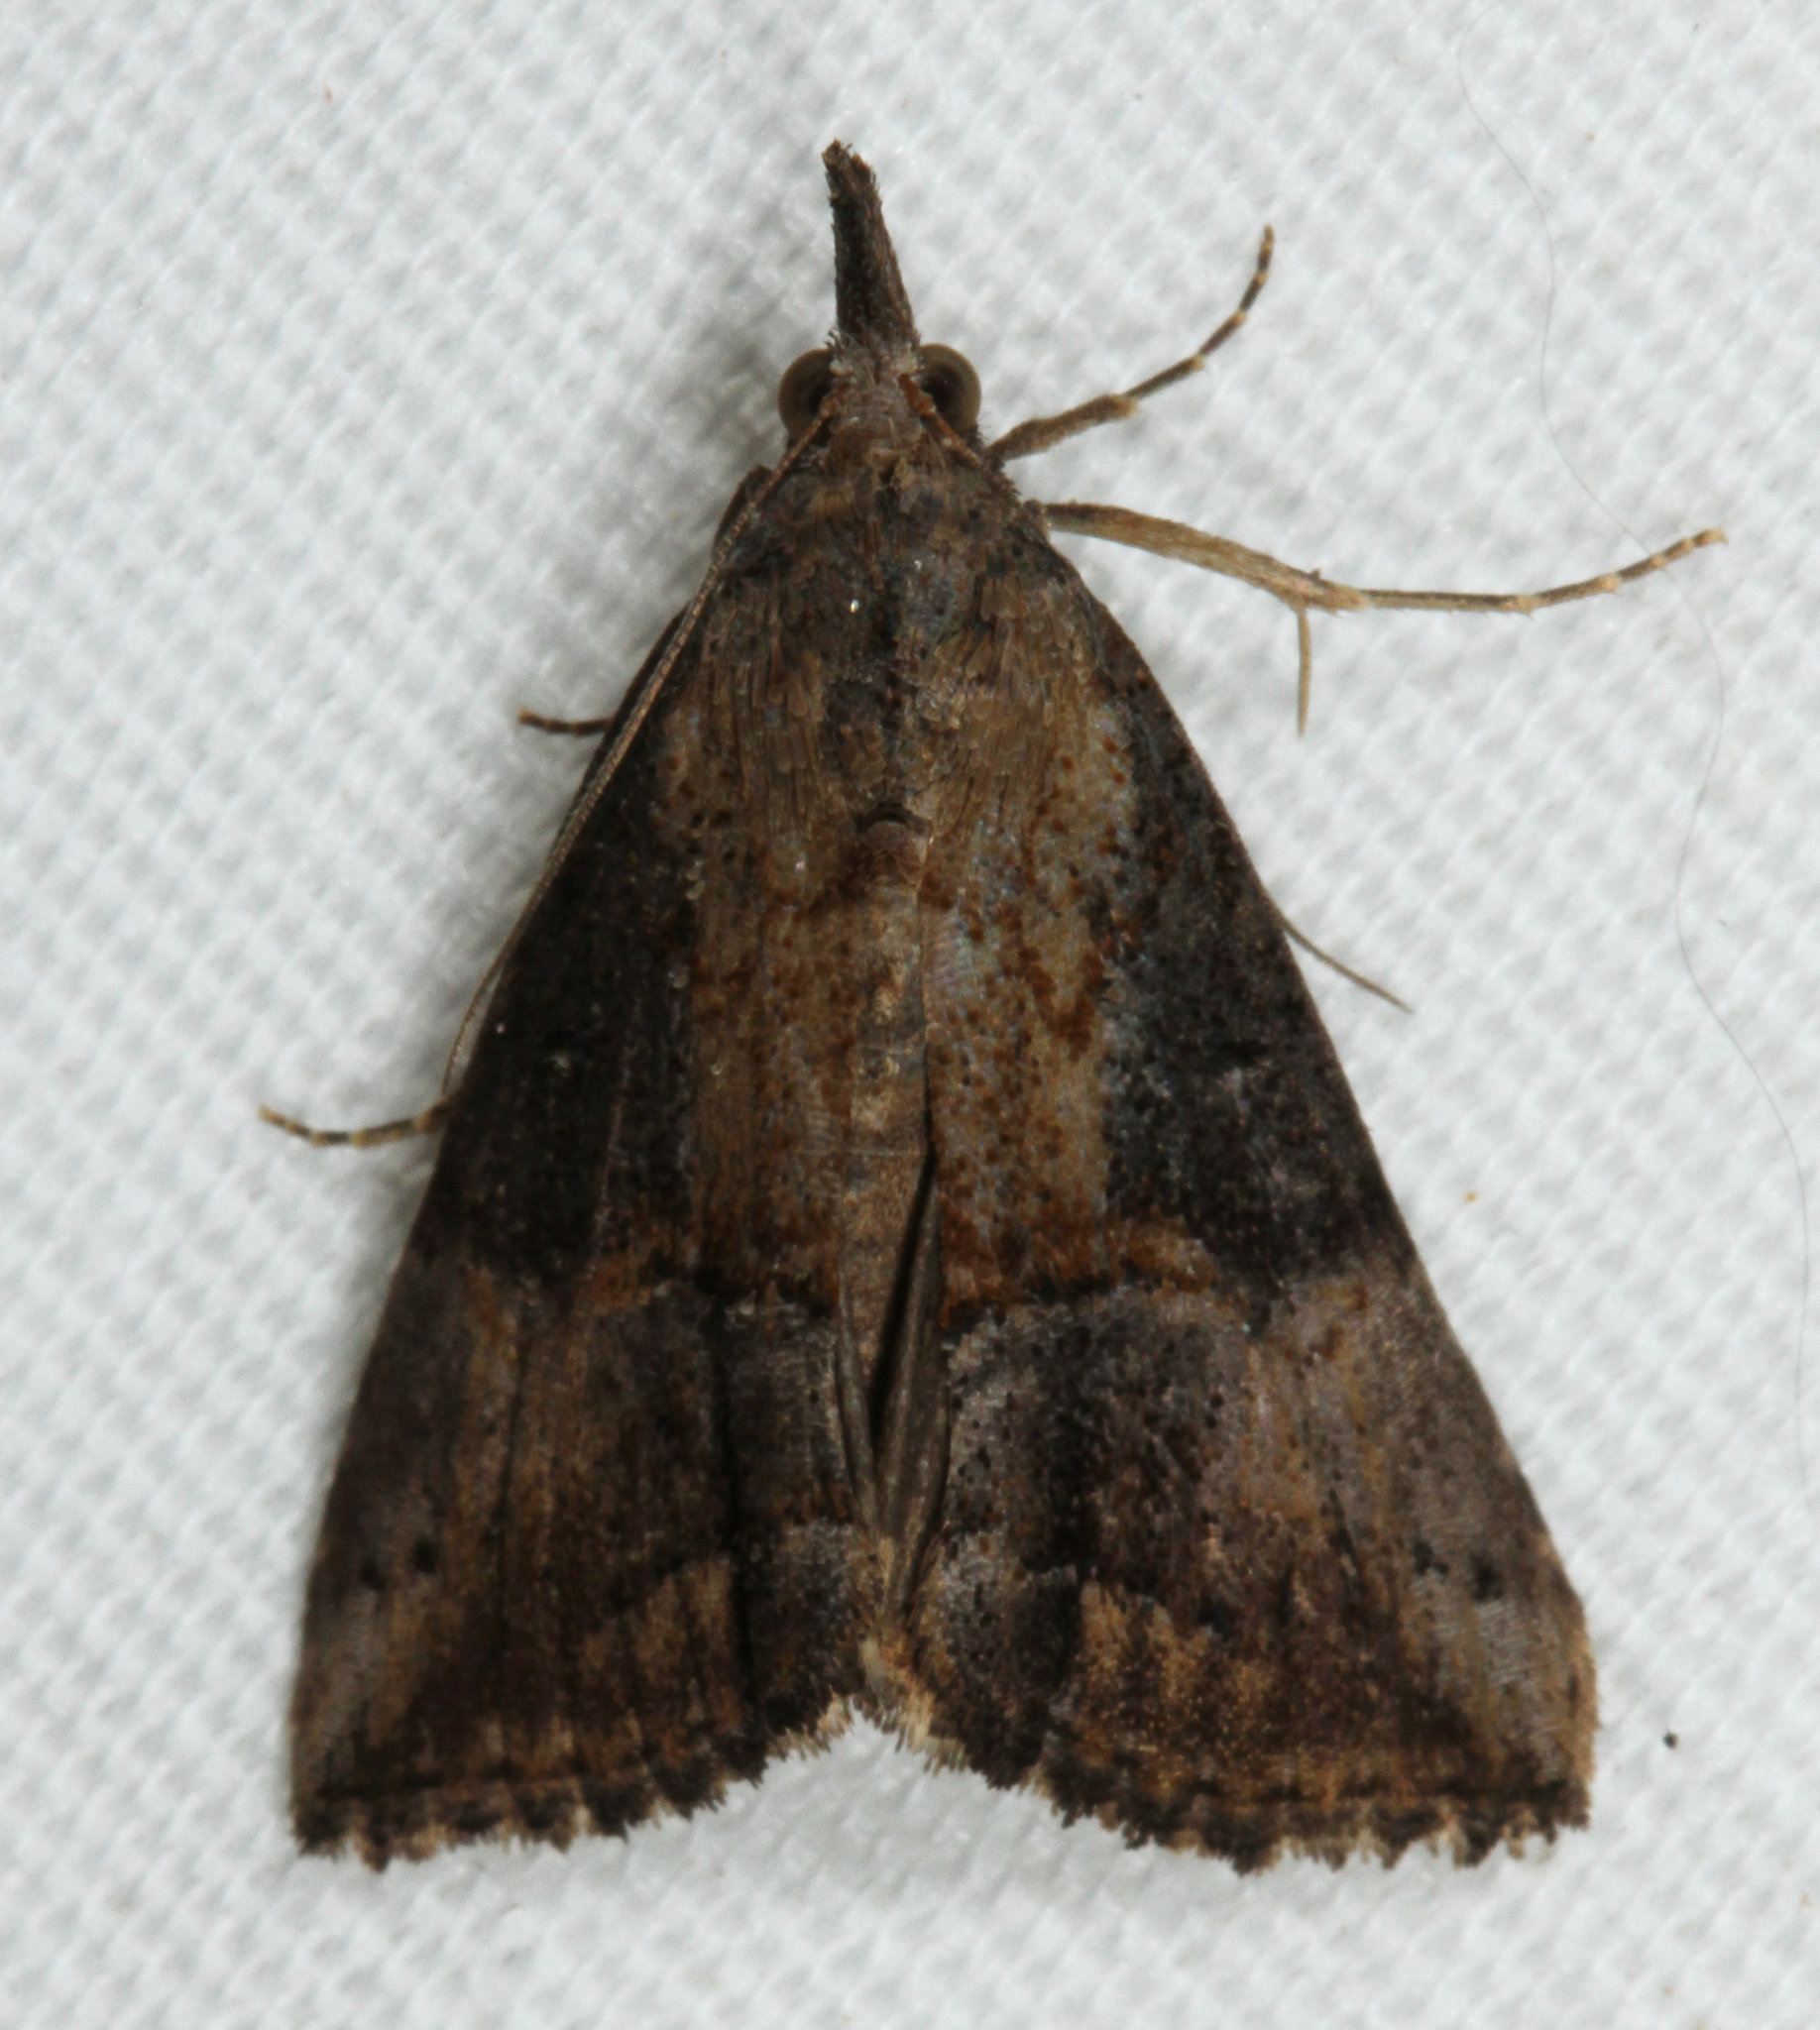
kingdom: Animalia
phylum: Arthropoda
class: Insecta
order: Lepidoptera
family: Erebidae
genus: Hypena
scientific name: Hypena scabra
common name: Green cloverworm
